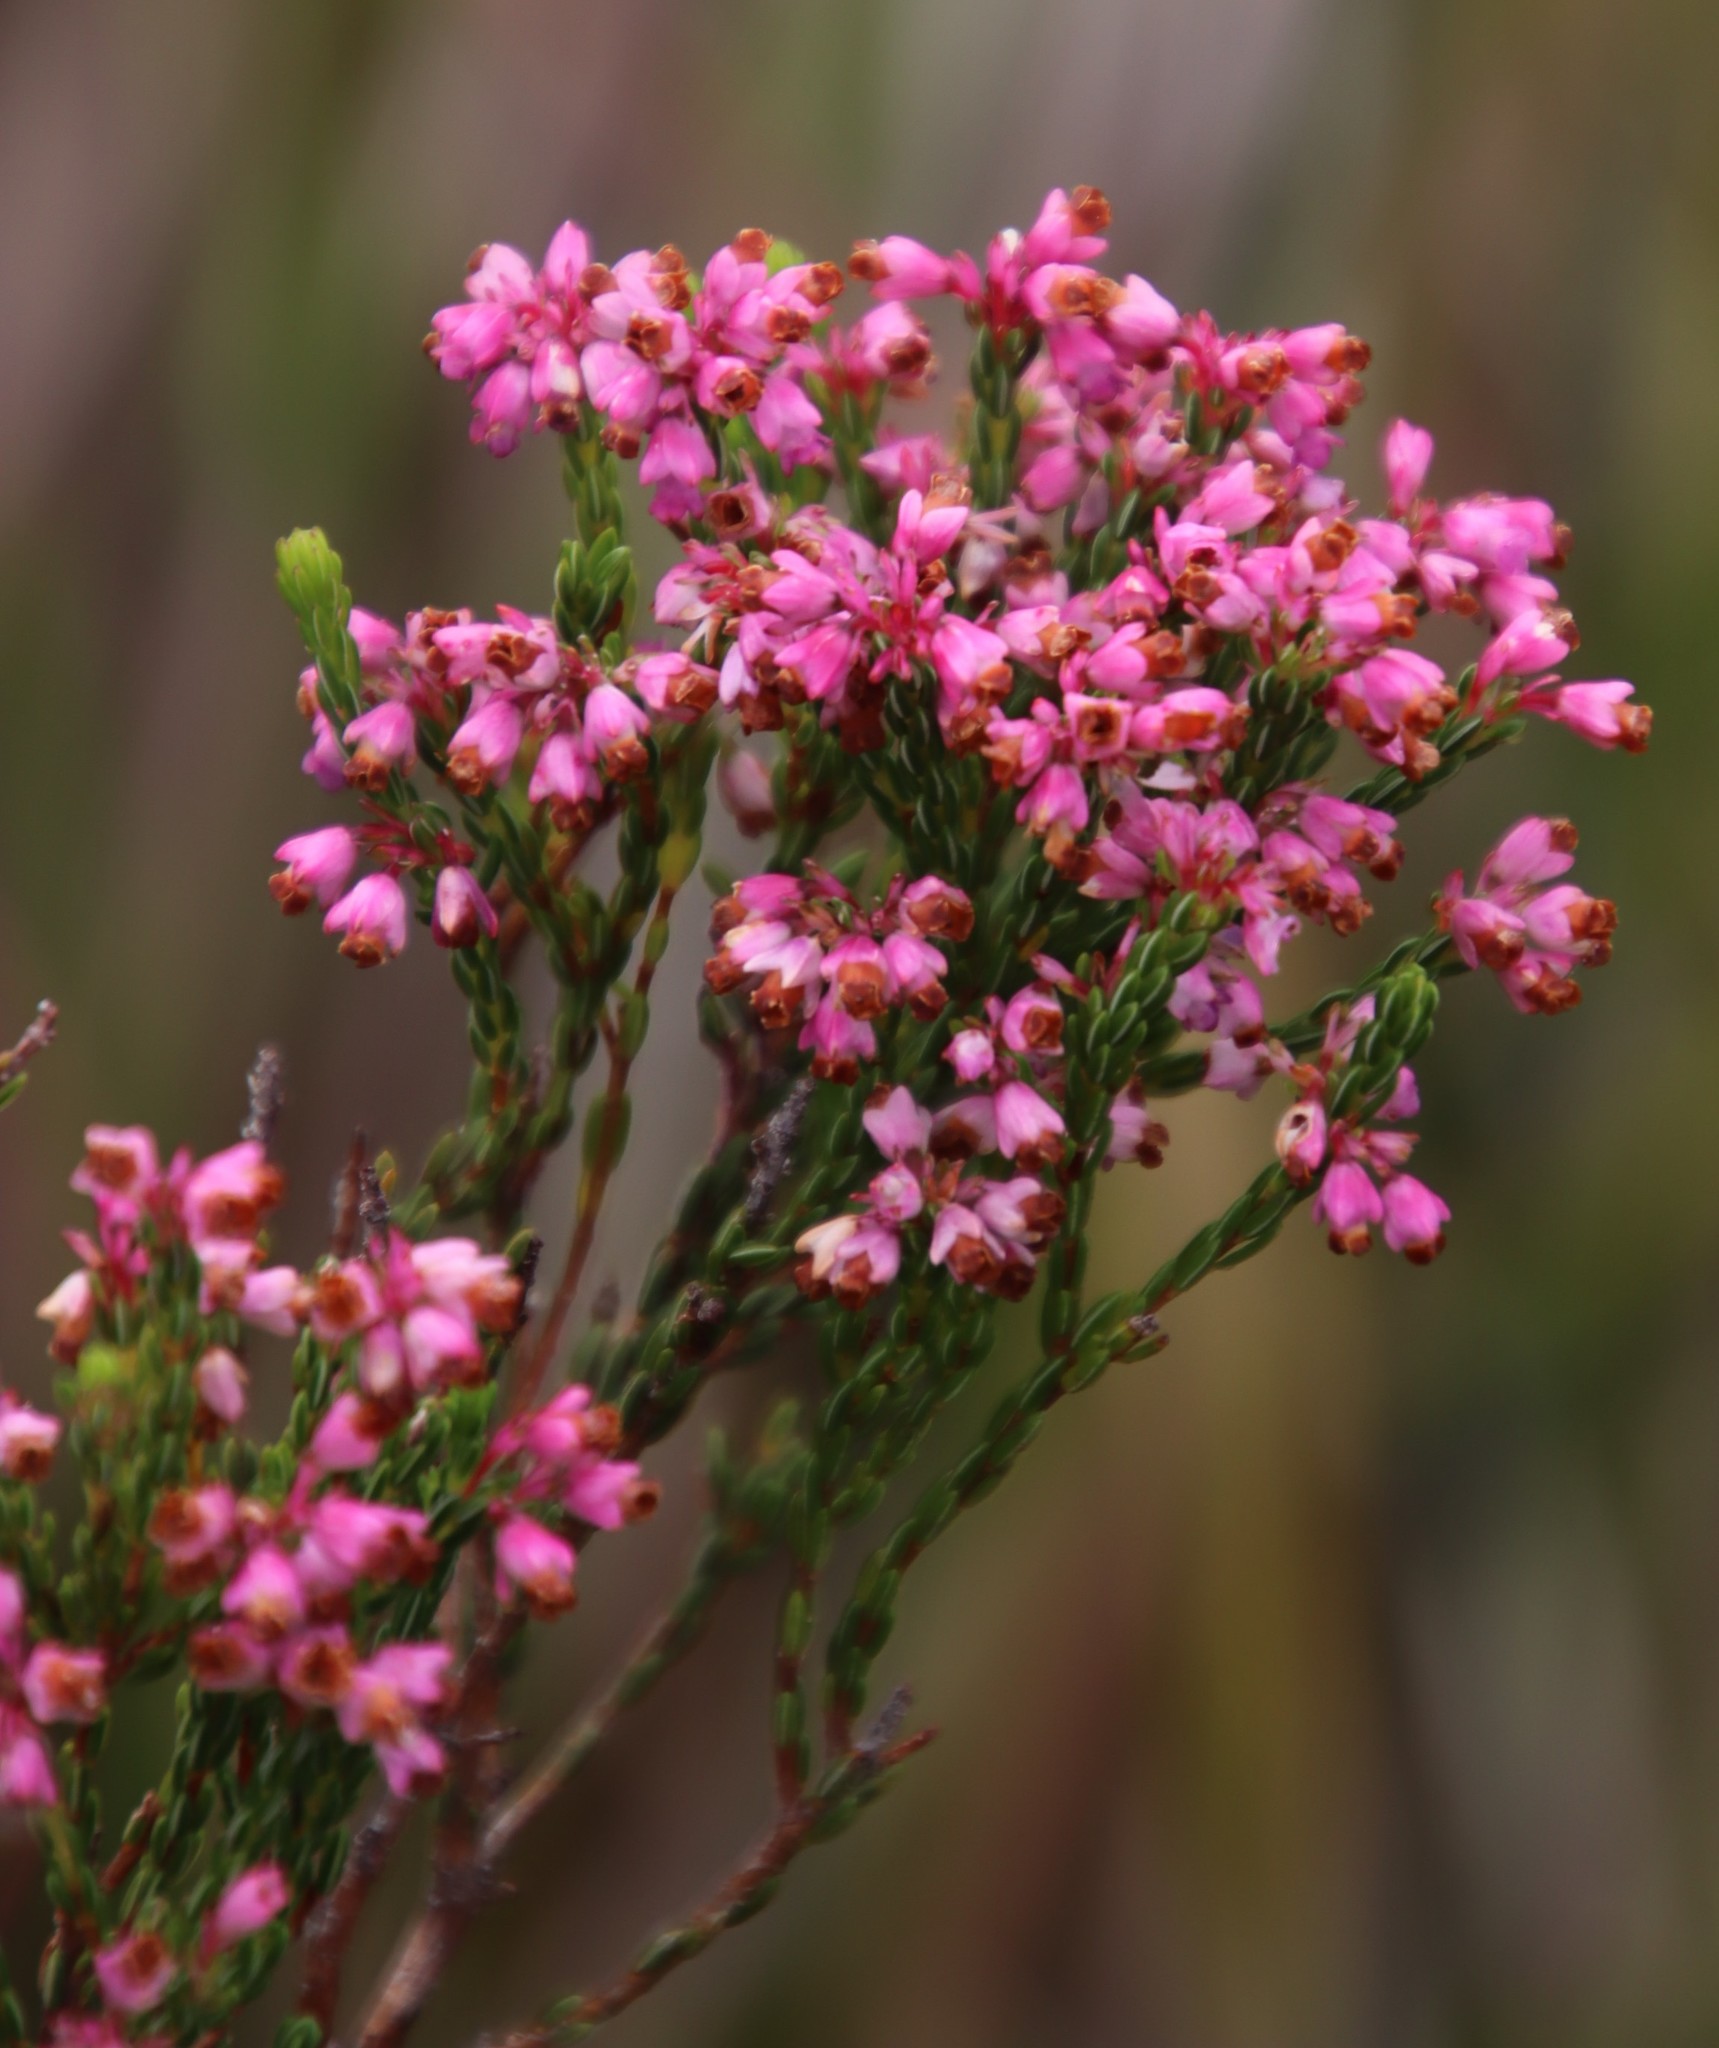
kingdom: Plantae
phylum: Tracheophyta
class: Magnoliopsida
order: Ericales
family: Ericaceae
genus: Erica
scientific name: Erica corifolia
